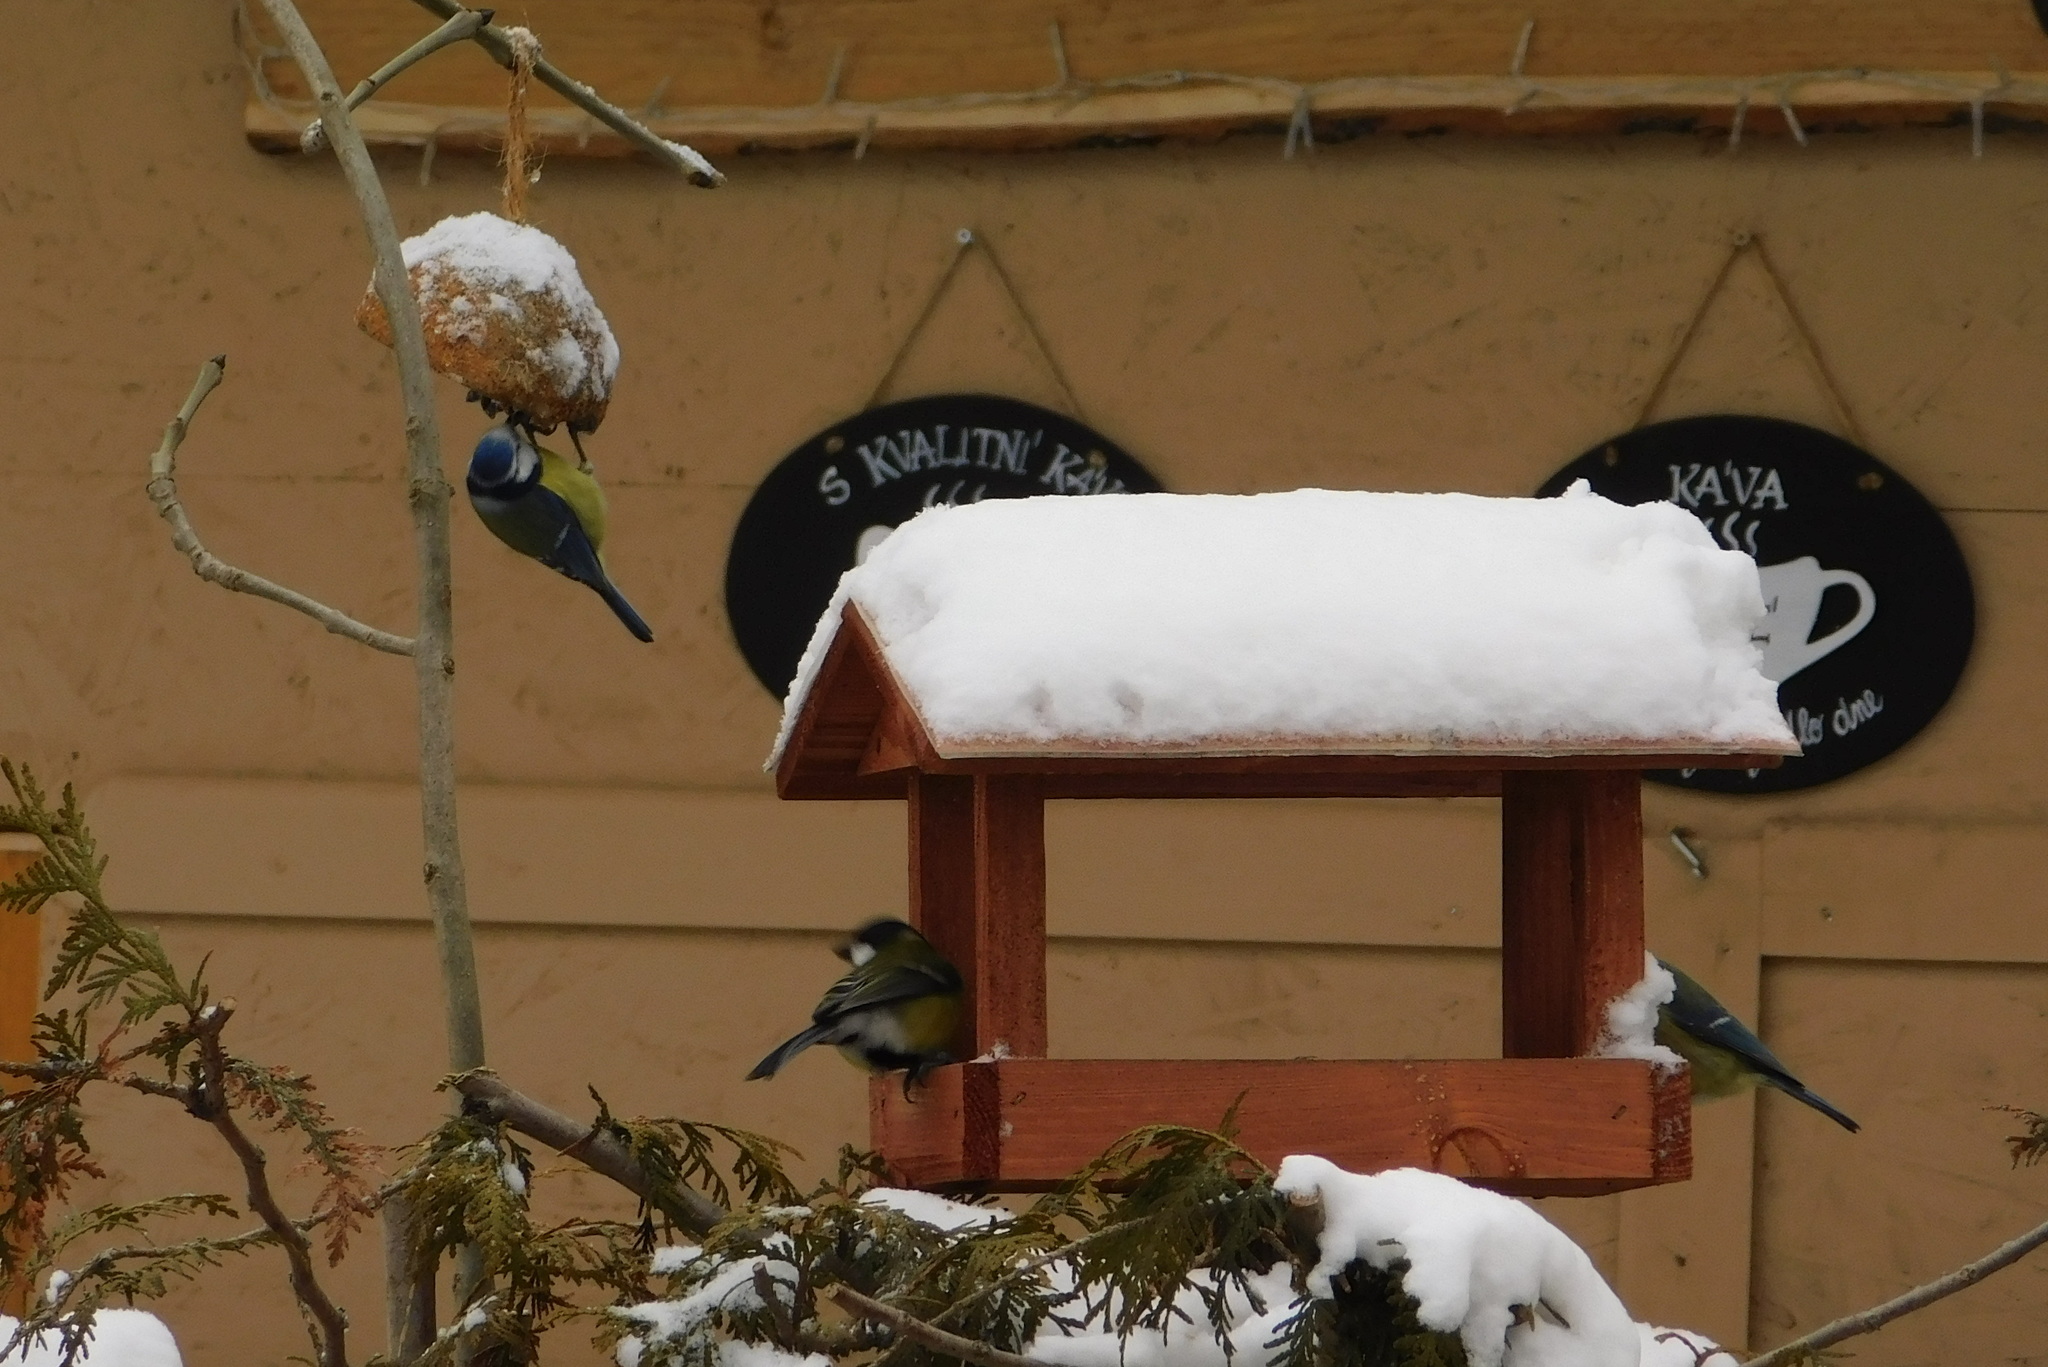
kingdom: Animalia
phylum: Chordata
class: Aves
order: Passeriformes
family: Paridae
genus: Cyanistes
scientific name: Cyanistes caeruleus
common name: Eurasian blue tit
